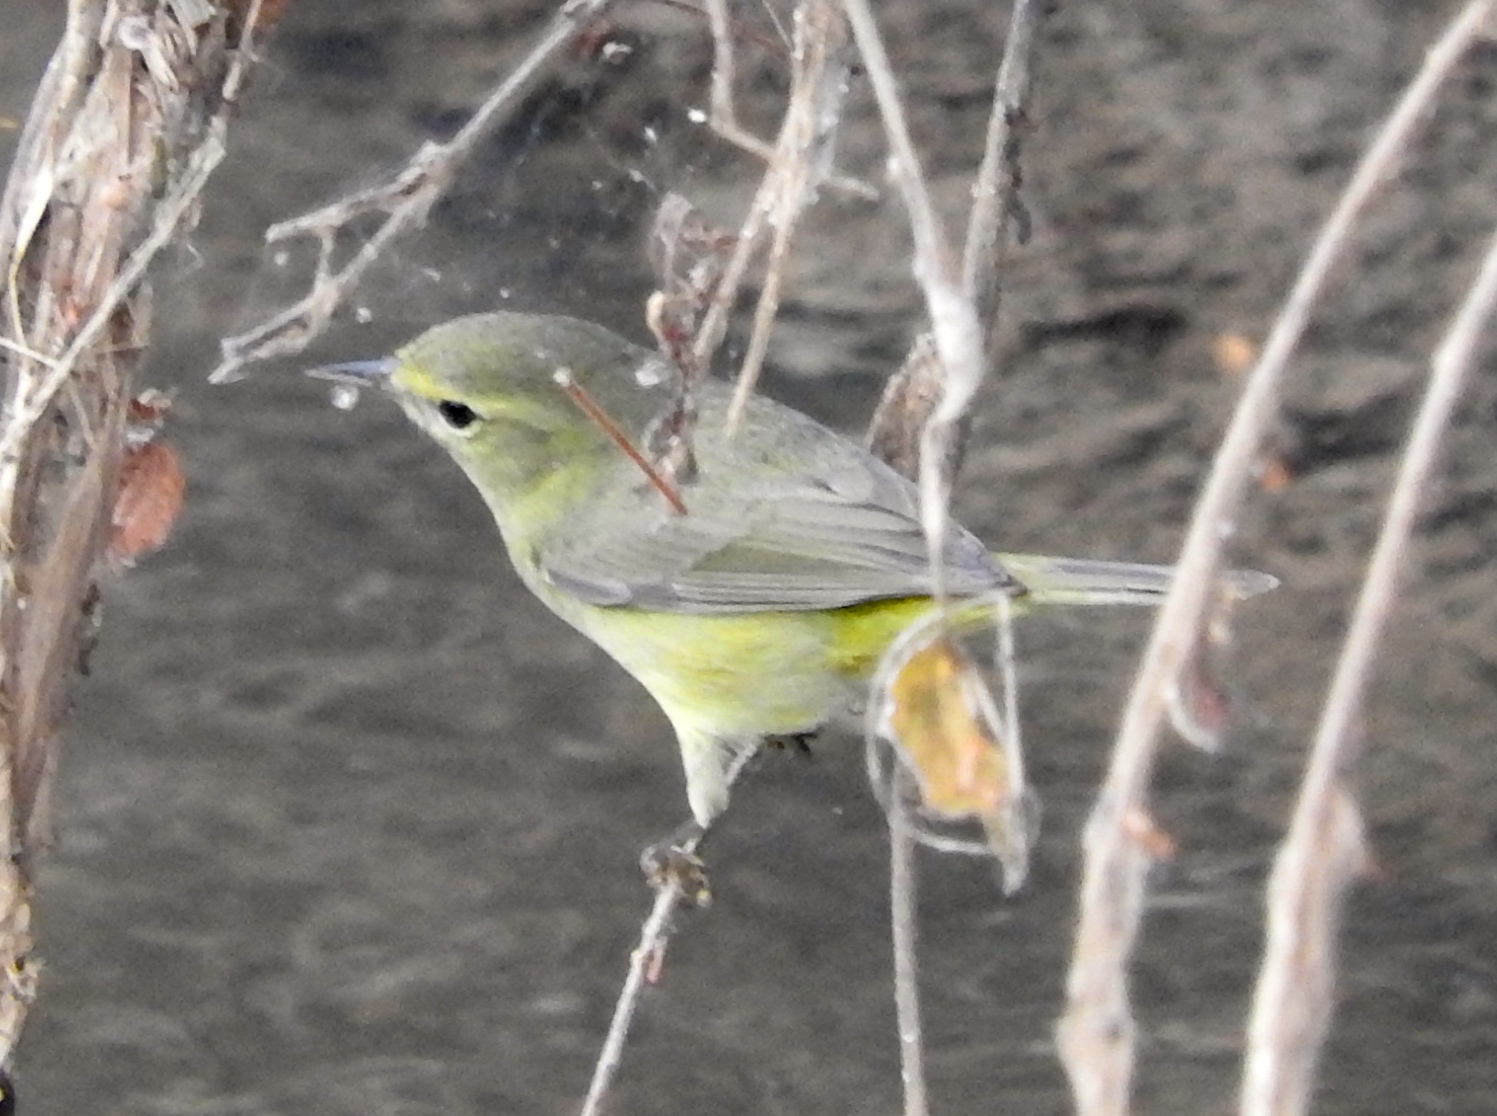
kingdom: Animalia
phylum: Chordata
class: Aves
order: Passeriformes
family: Parulidae
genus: Leiothlypis
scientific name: Leiothlypis celata
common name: Orange-crowned warbler
